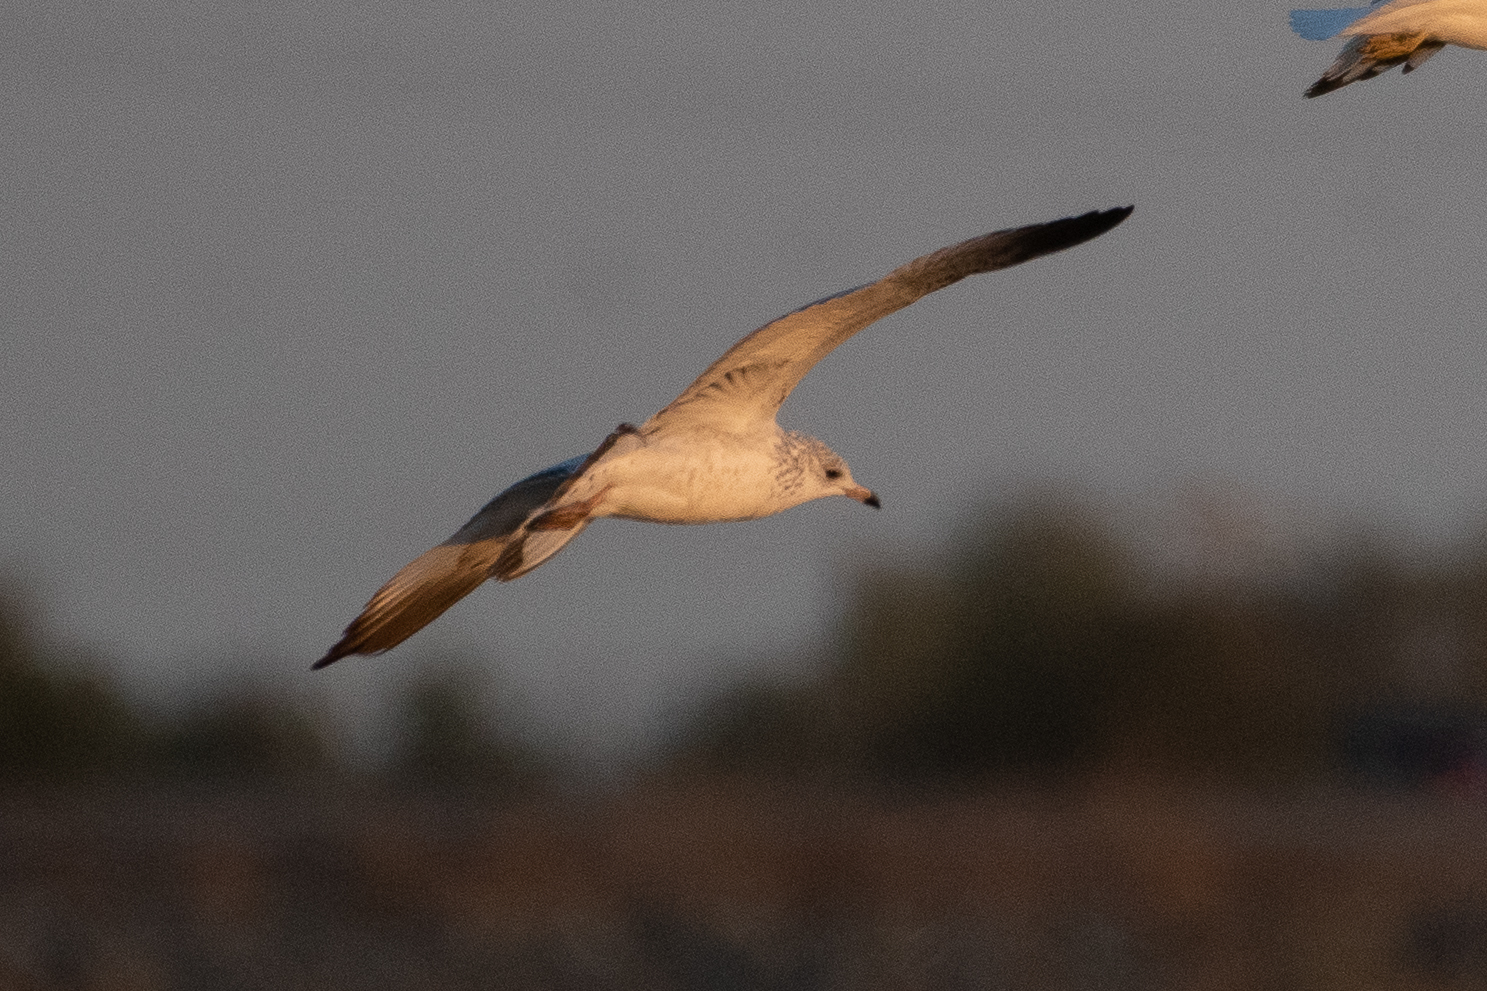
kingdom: Animalia
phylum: Chordata
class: Aves
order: Charadriiformes
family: Laridae
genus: Larus
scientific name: Larus delawarensis
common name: Ring-billed gull
